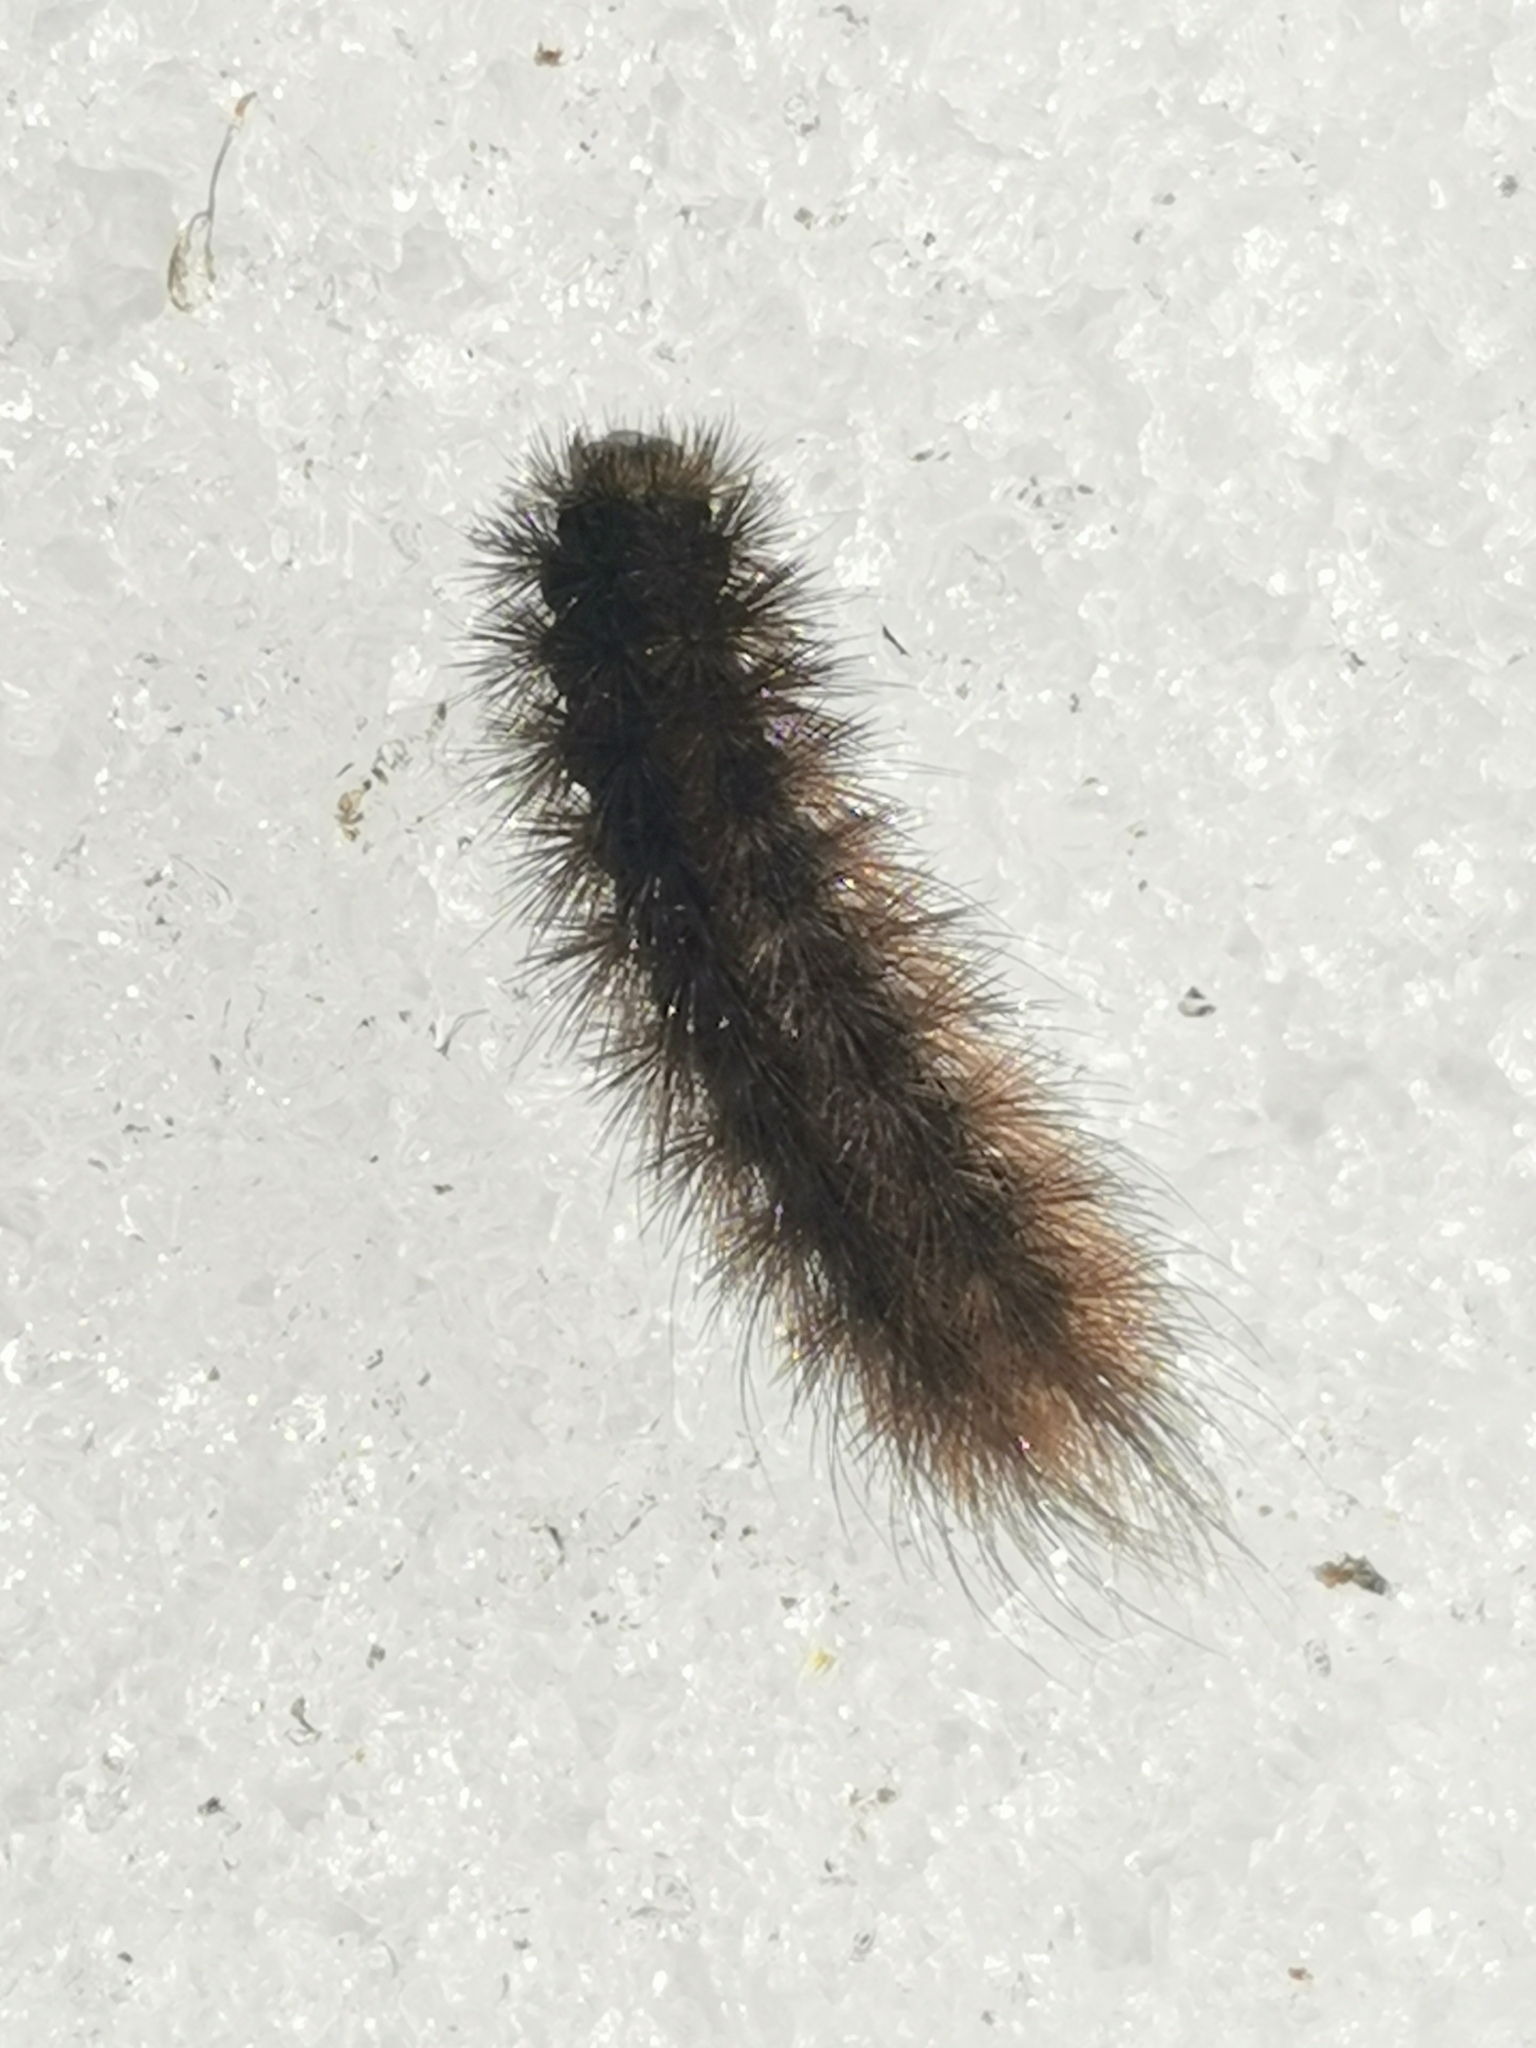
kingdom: Animalia
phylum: Arthropoda
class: Insecta
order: Lepidoptera
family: Erebidae
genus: Phragmatobia
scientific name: Phragmatobia fuliginosa
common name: Ruby tiger
